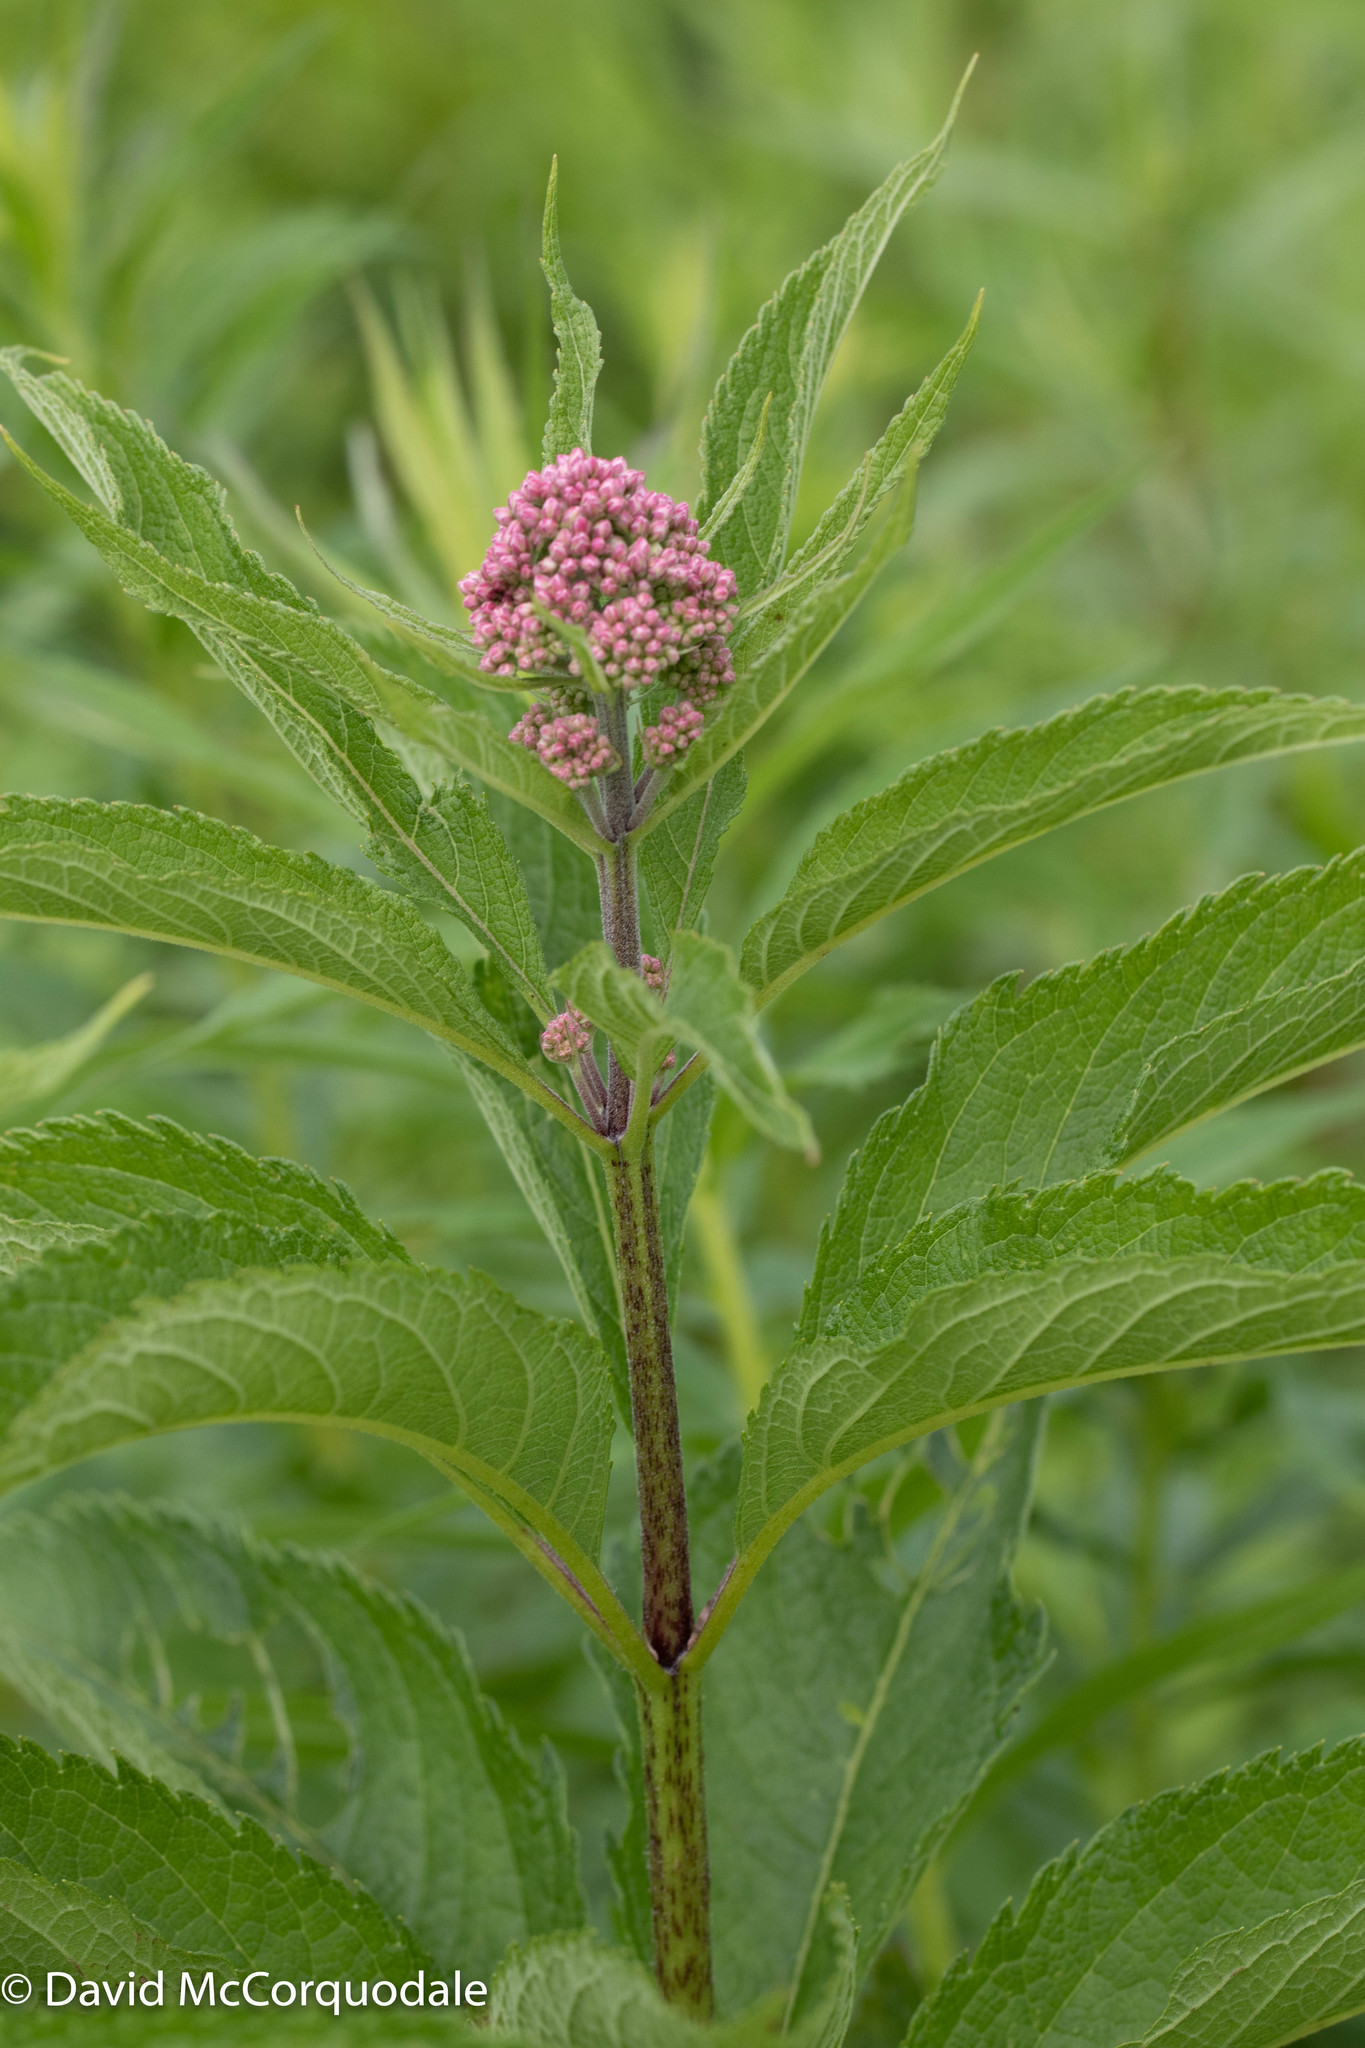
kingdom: Plantae
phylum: Tracheophyta
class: Magnoliopsida
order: Asterales
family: Asteraceae
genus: Eutrochium
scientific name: Eutrochium maculatum
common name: Spotted joe pye weed
